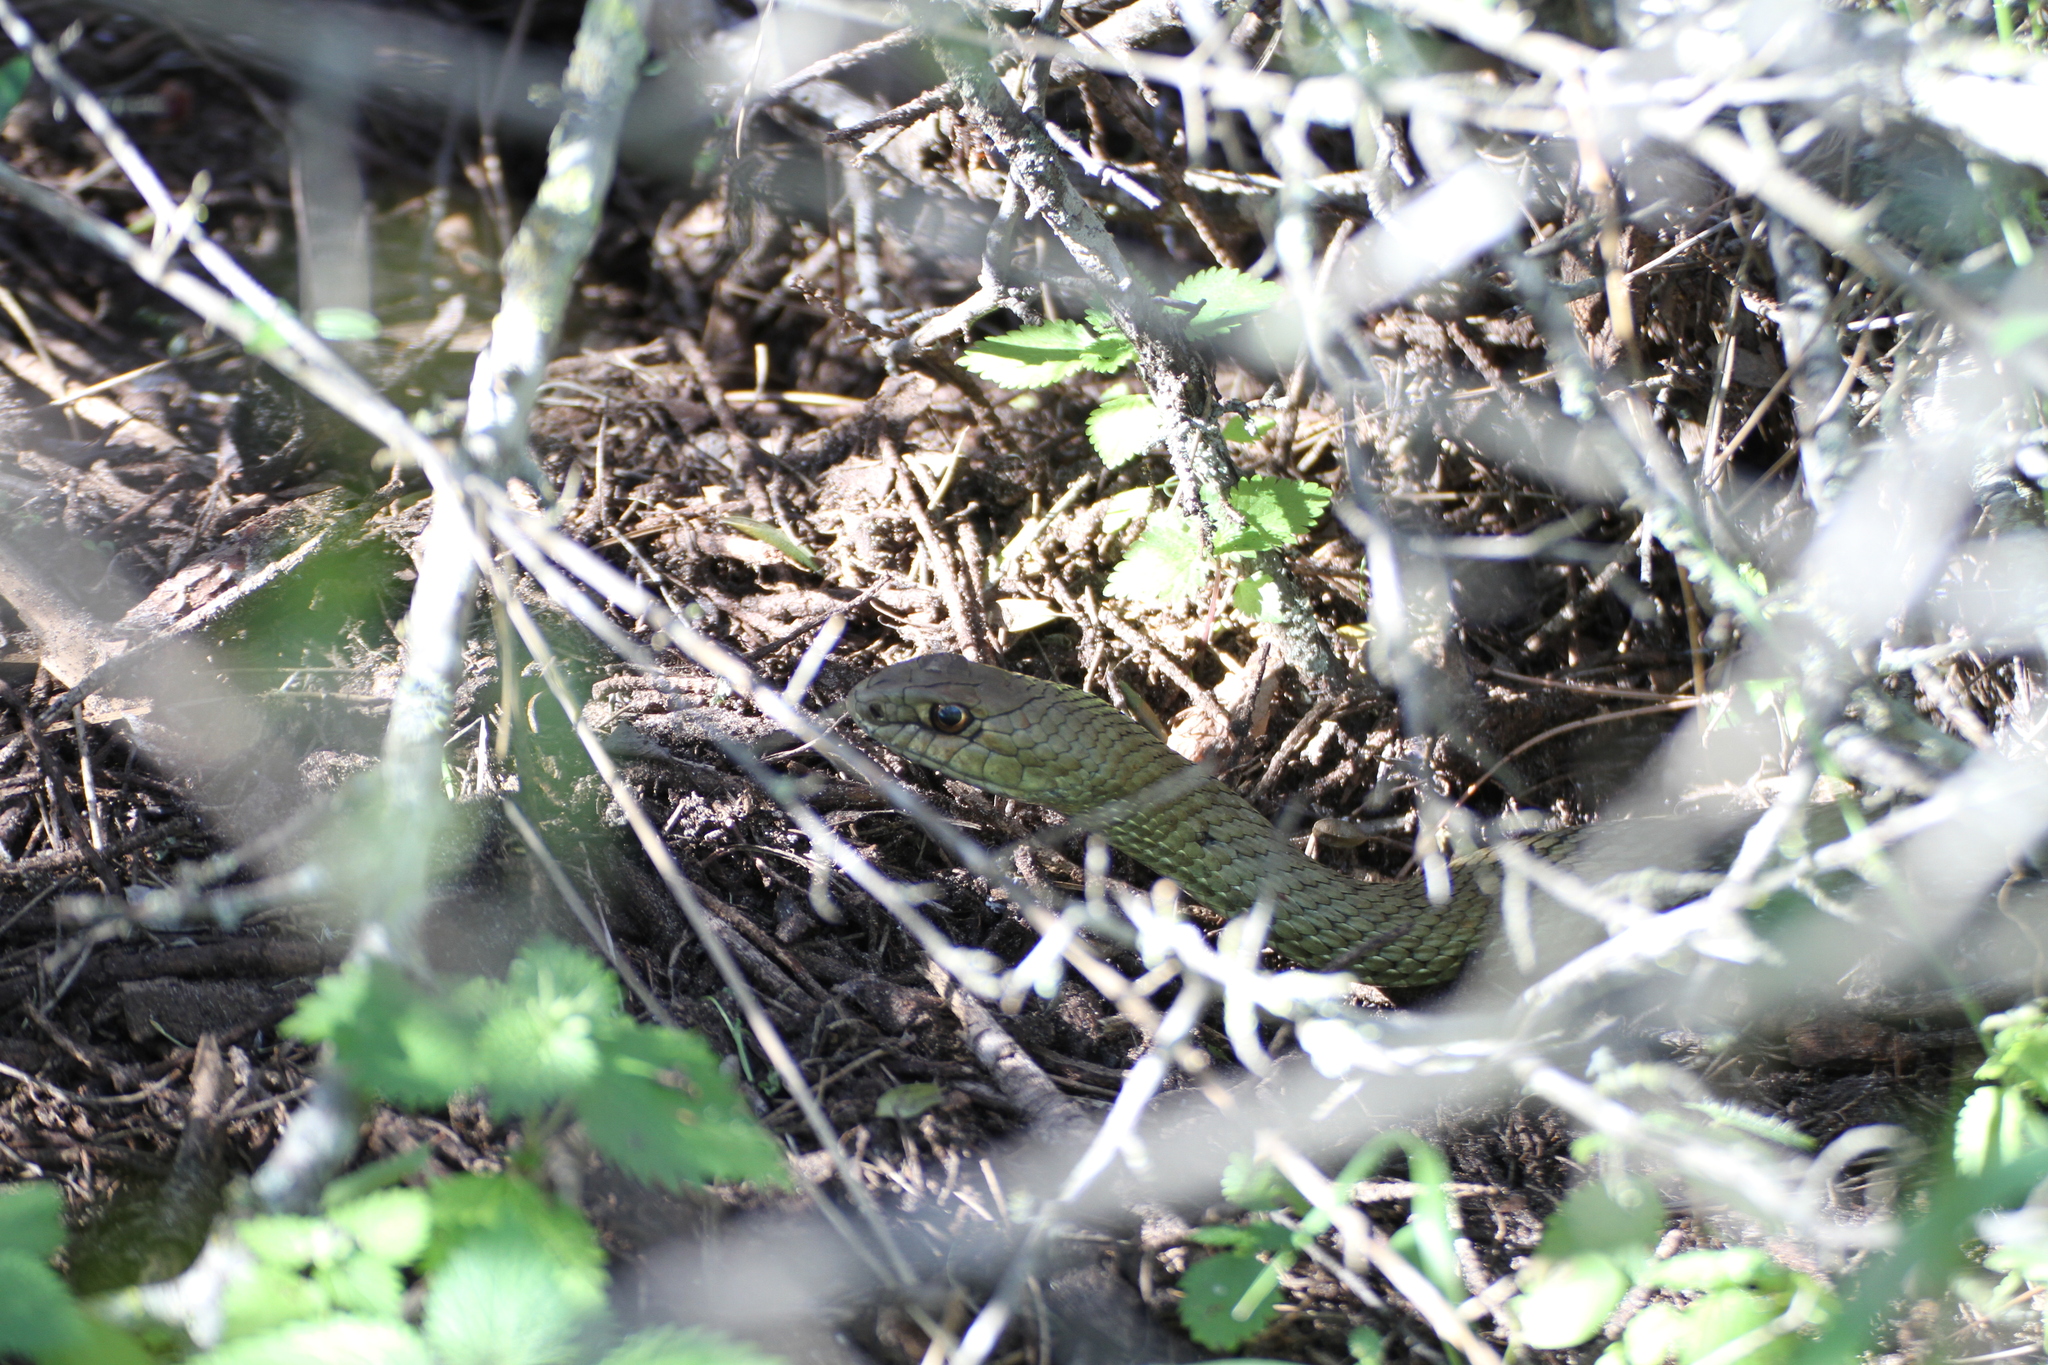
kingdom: Animalia
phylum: Chordata
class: Squamata
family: Psammophiidae
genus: Malpolon
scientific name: Malpolon monspessulanus
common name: Montpellier snake
